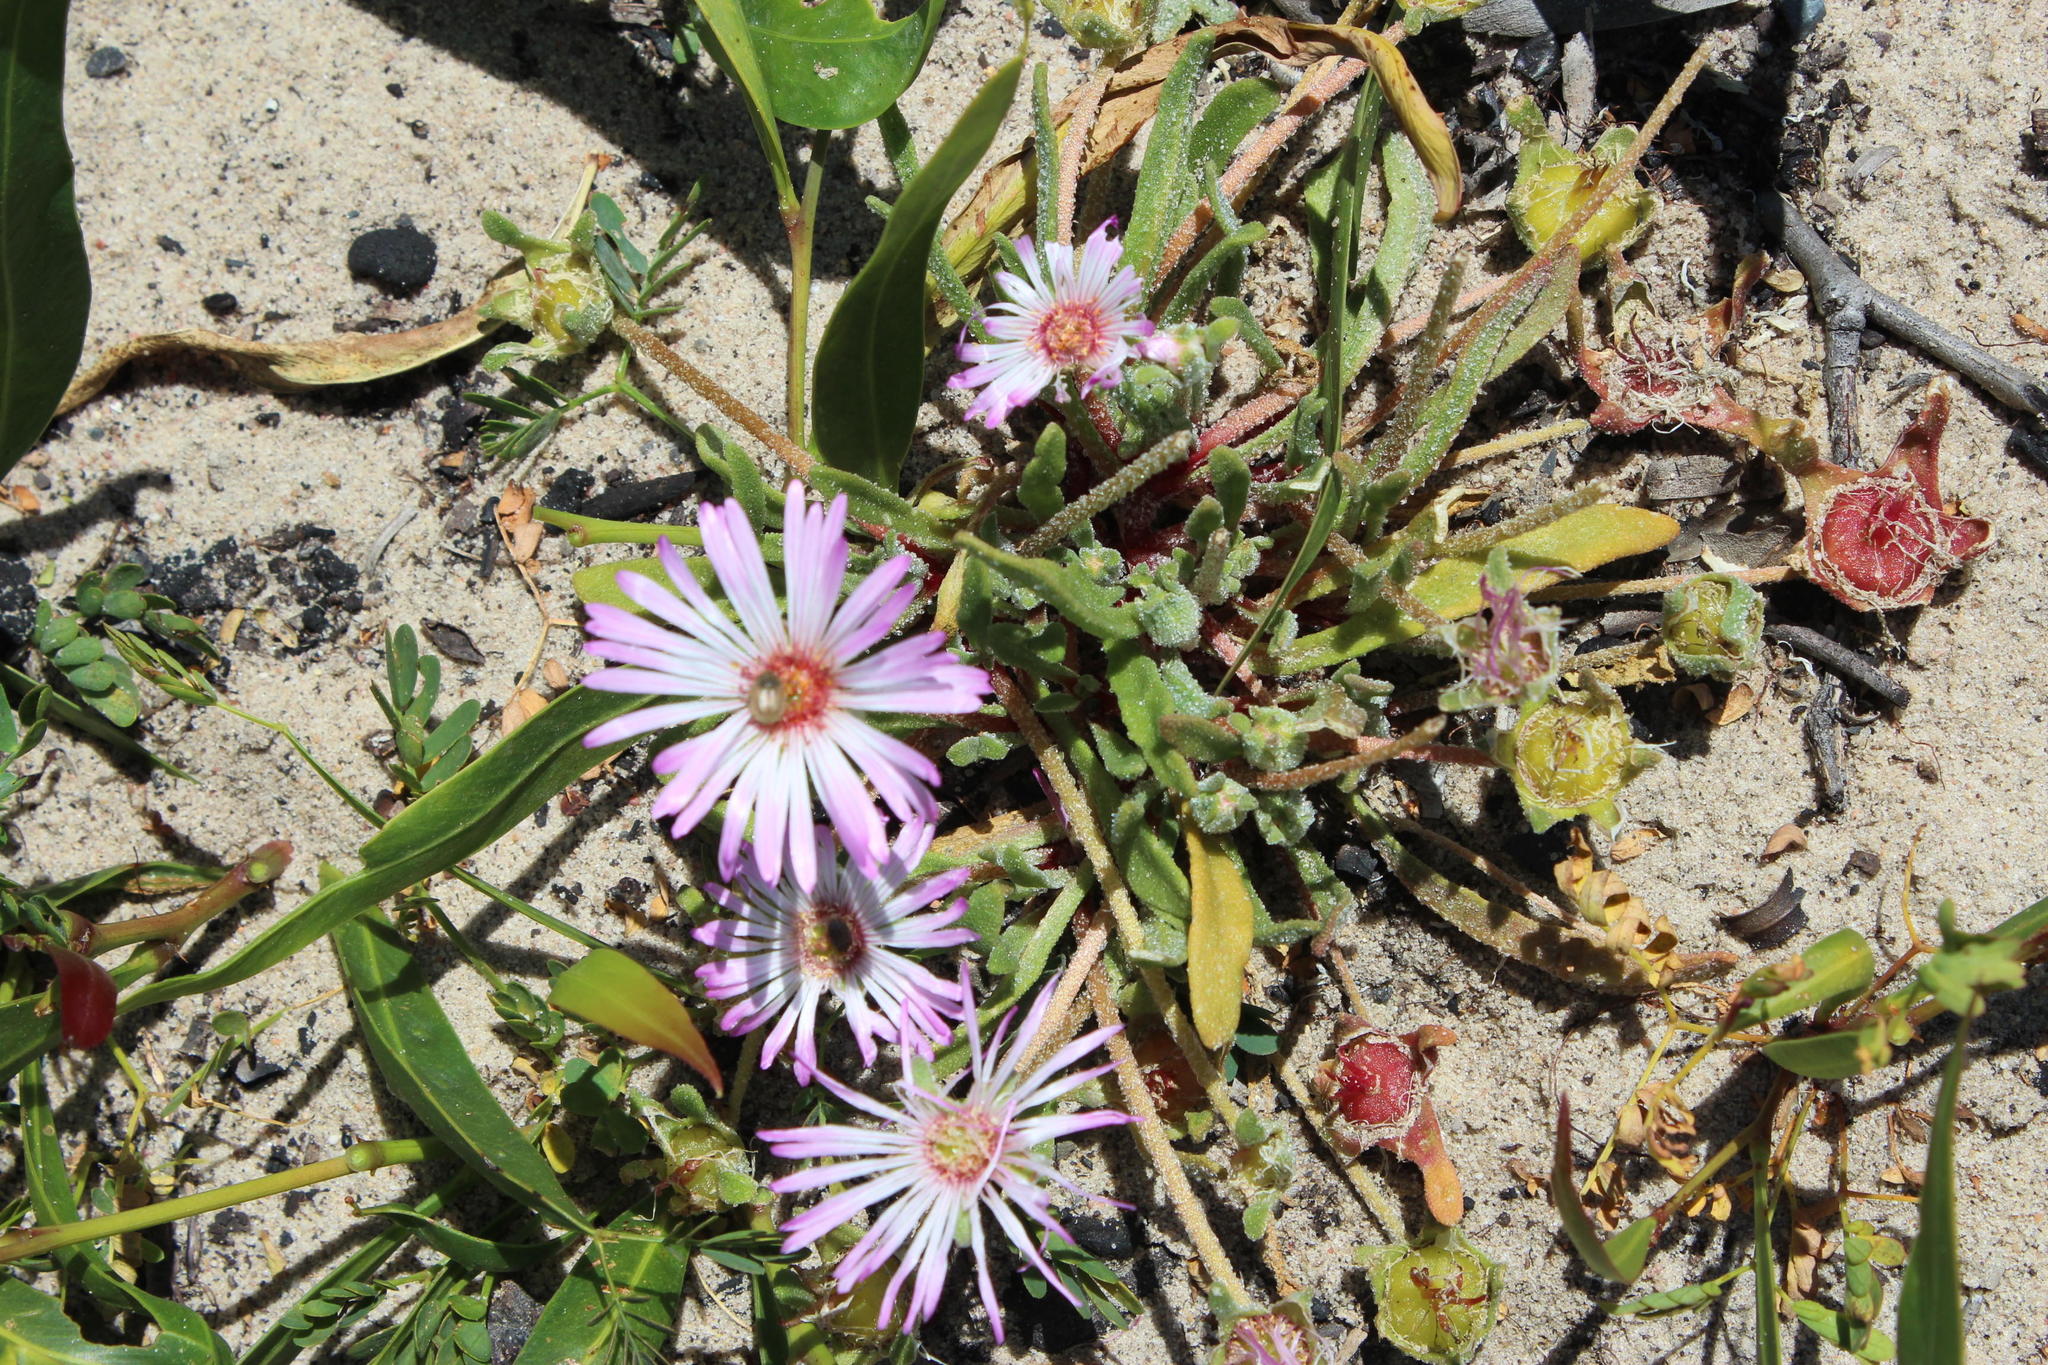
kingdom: Plantae
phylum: Tracheophyta
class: Magnoliopsida
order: Caryophyllales
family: Aizoaceae
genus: Cleretum
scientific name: Cleretum bellidiforme
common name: Livingstone daisy
